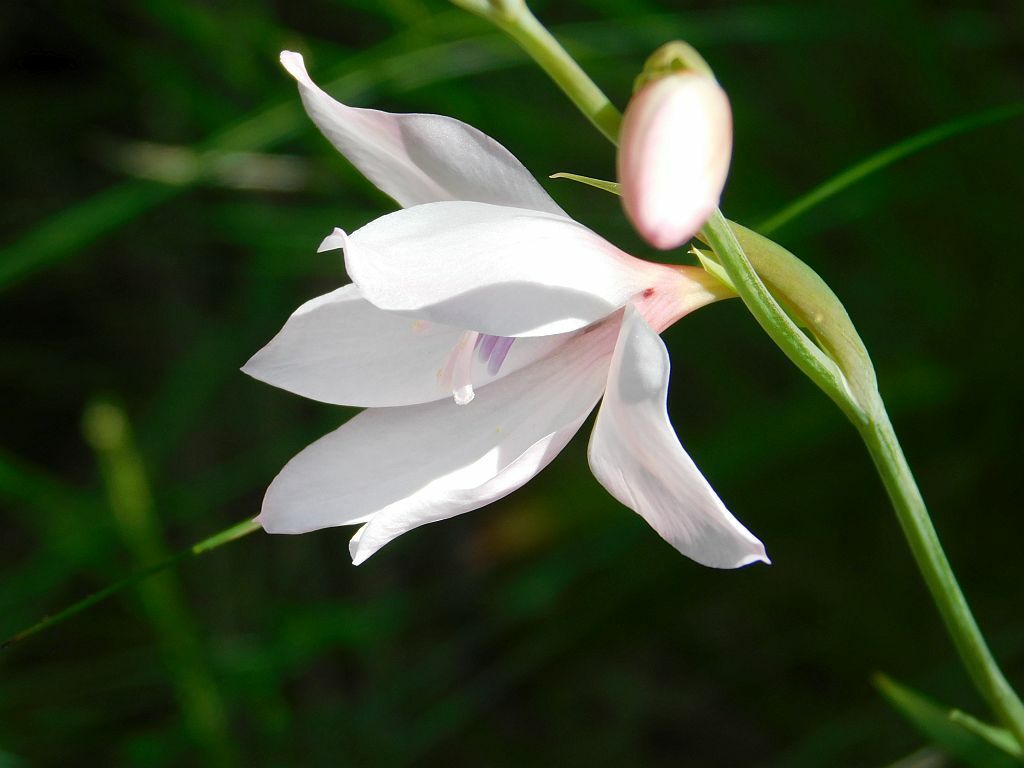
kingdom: Plantae
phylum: Tracheophyta
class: Liliopsida
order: Asparagales
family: Iridaceae
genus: Gladiolus
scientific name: Gladiolus carneus
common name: Painted-lady
